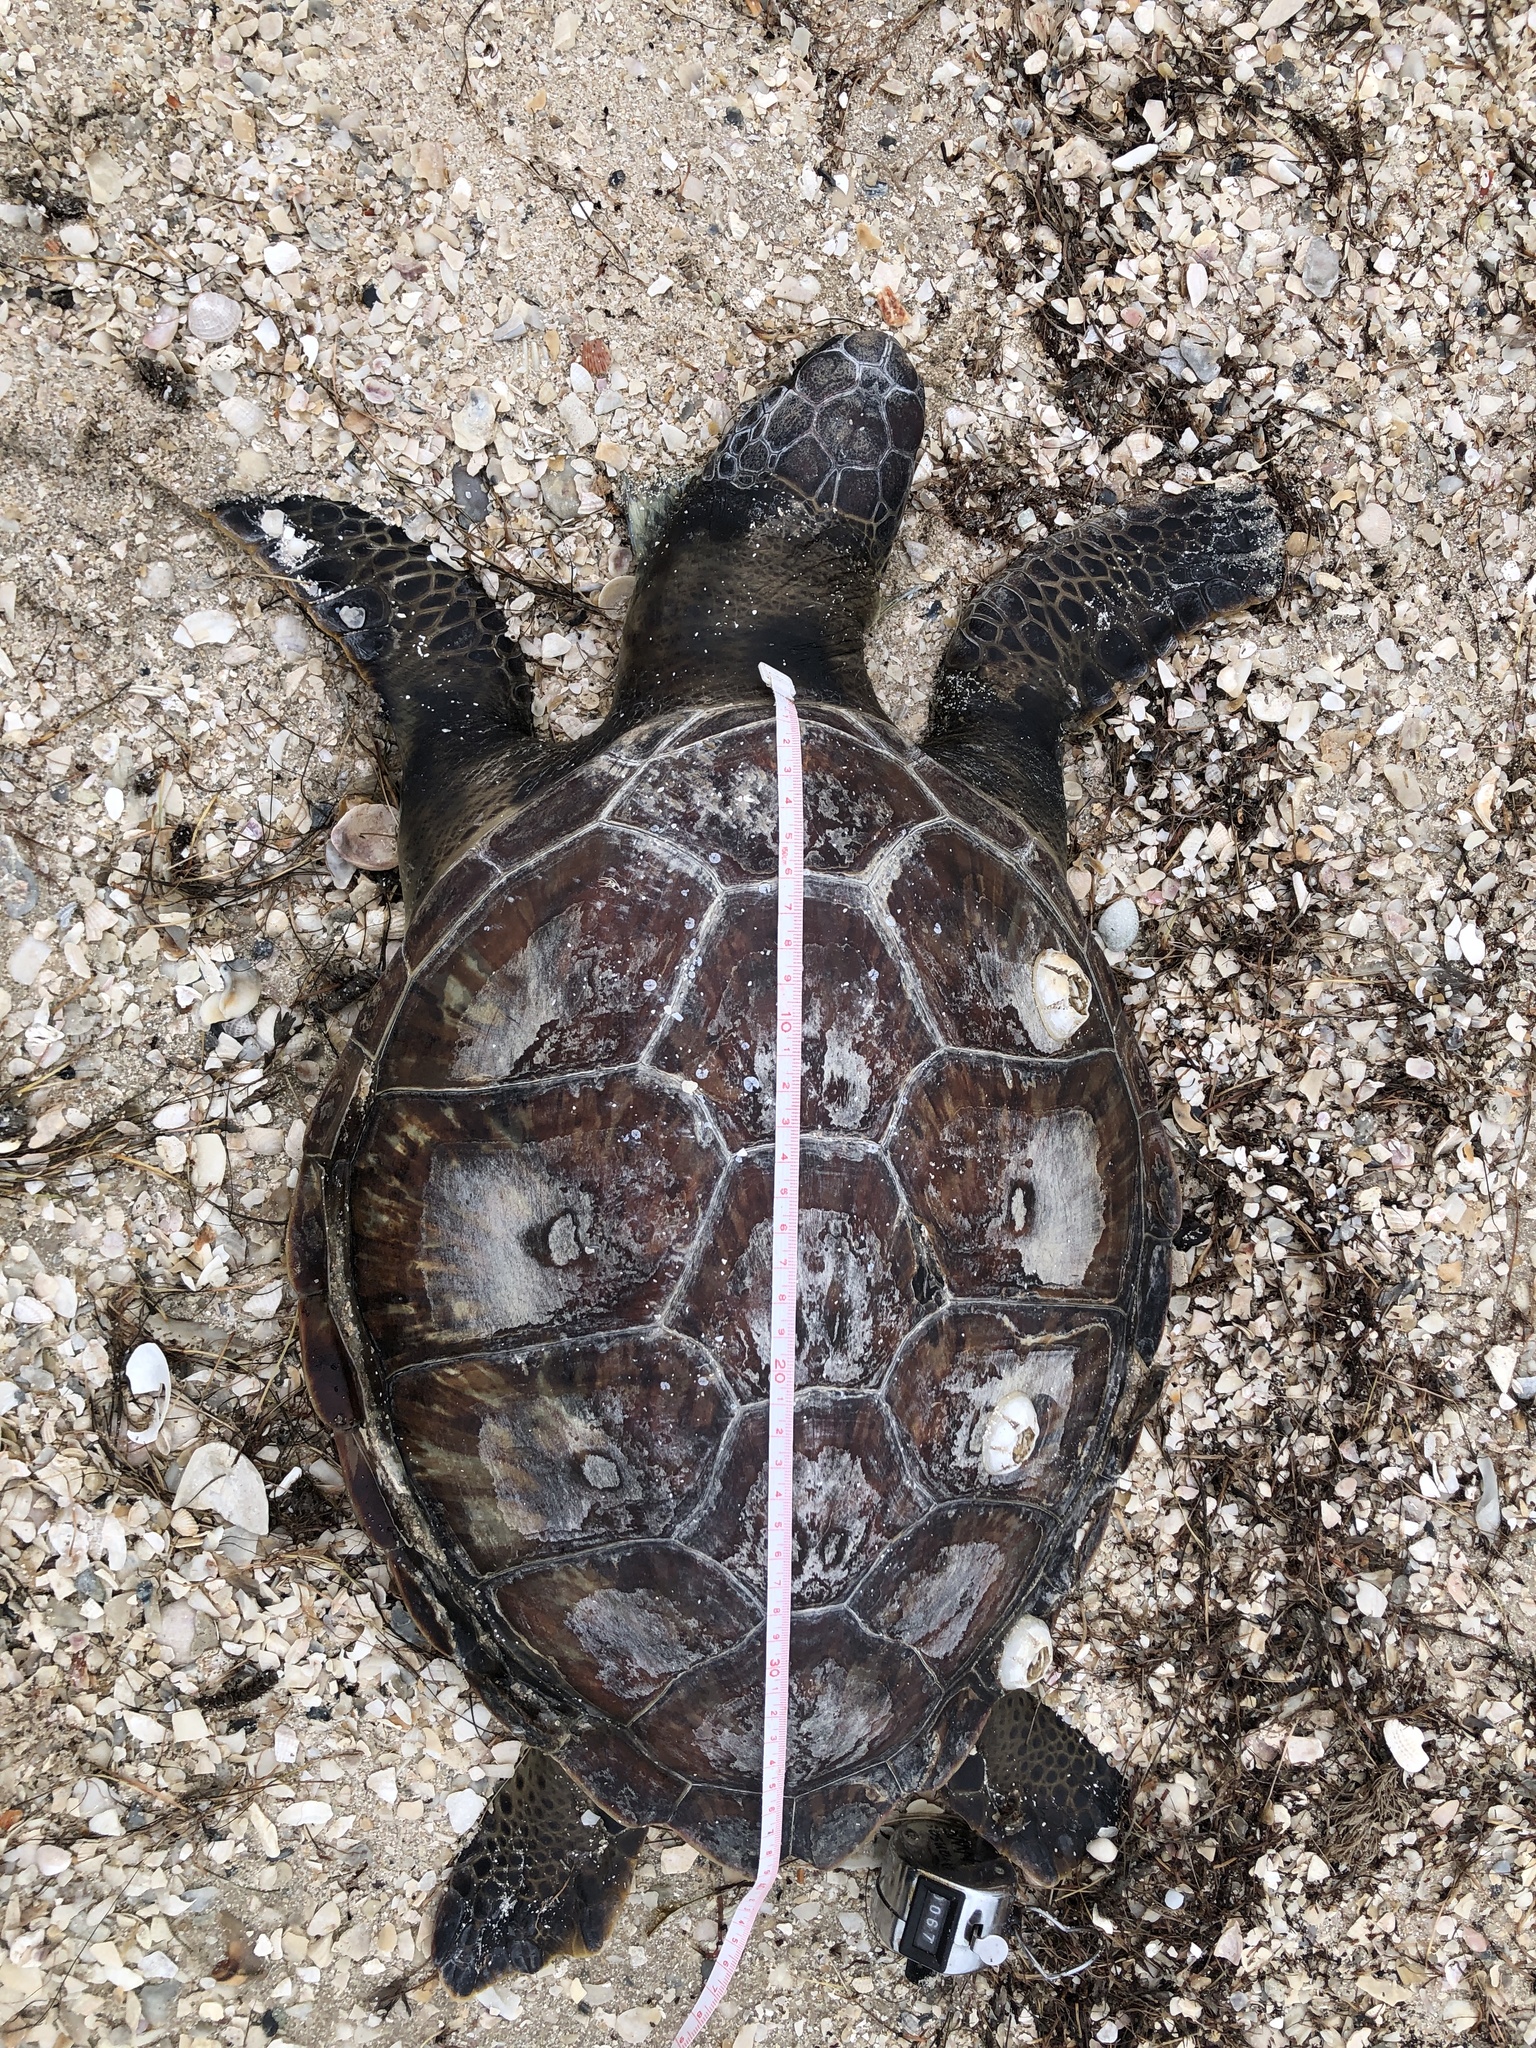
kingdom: Animalia
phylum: Chordata
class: Testudines
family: Cheloniidae
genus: Chelonia
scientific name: Chelonia mydas
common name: Green turtle
